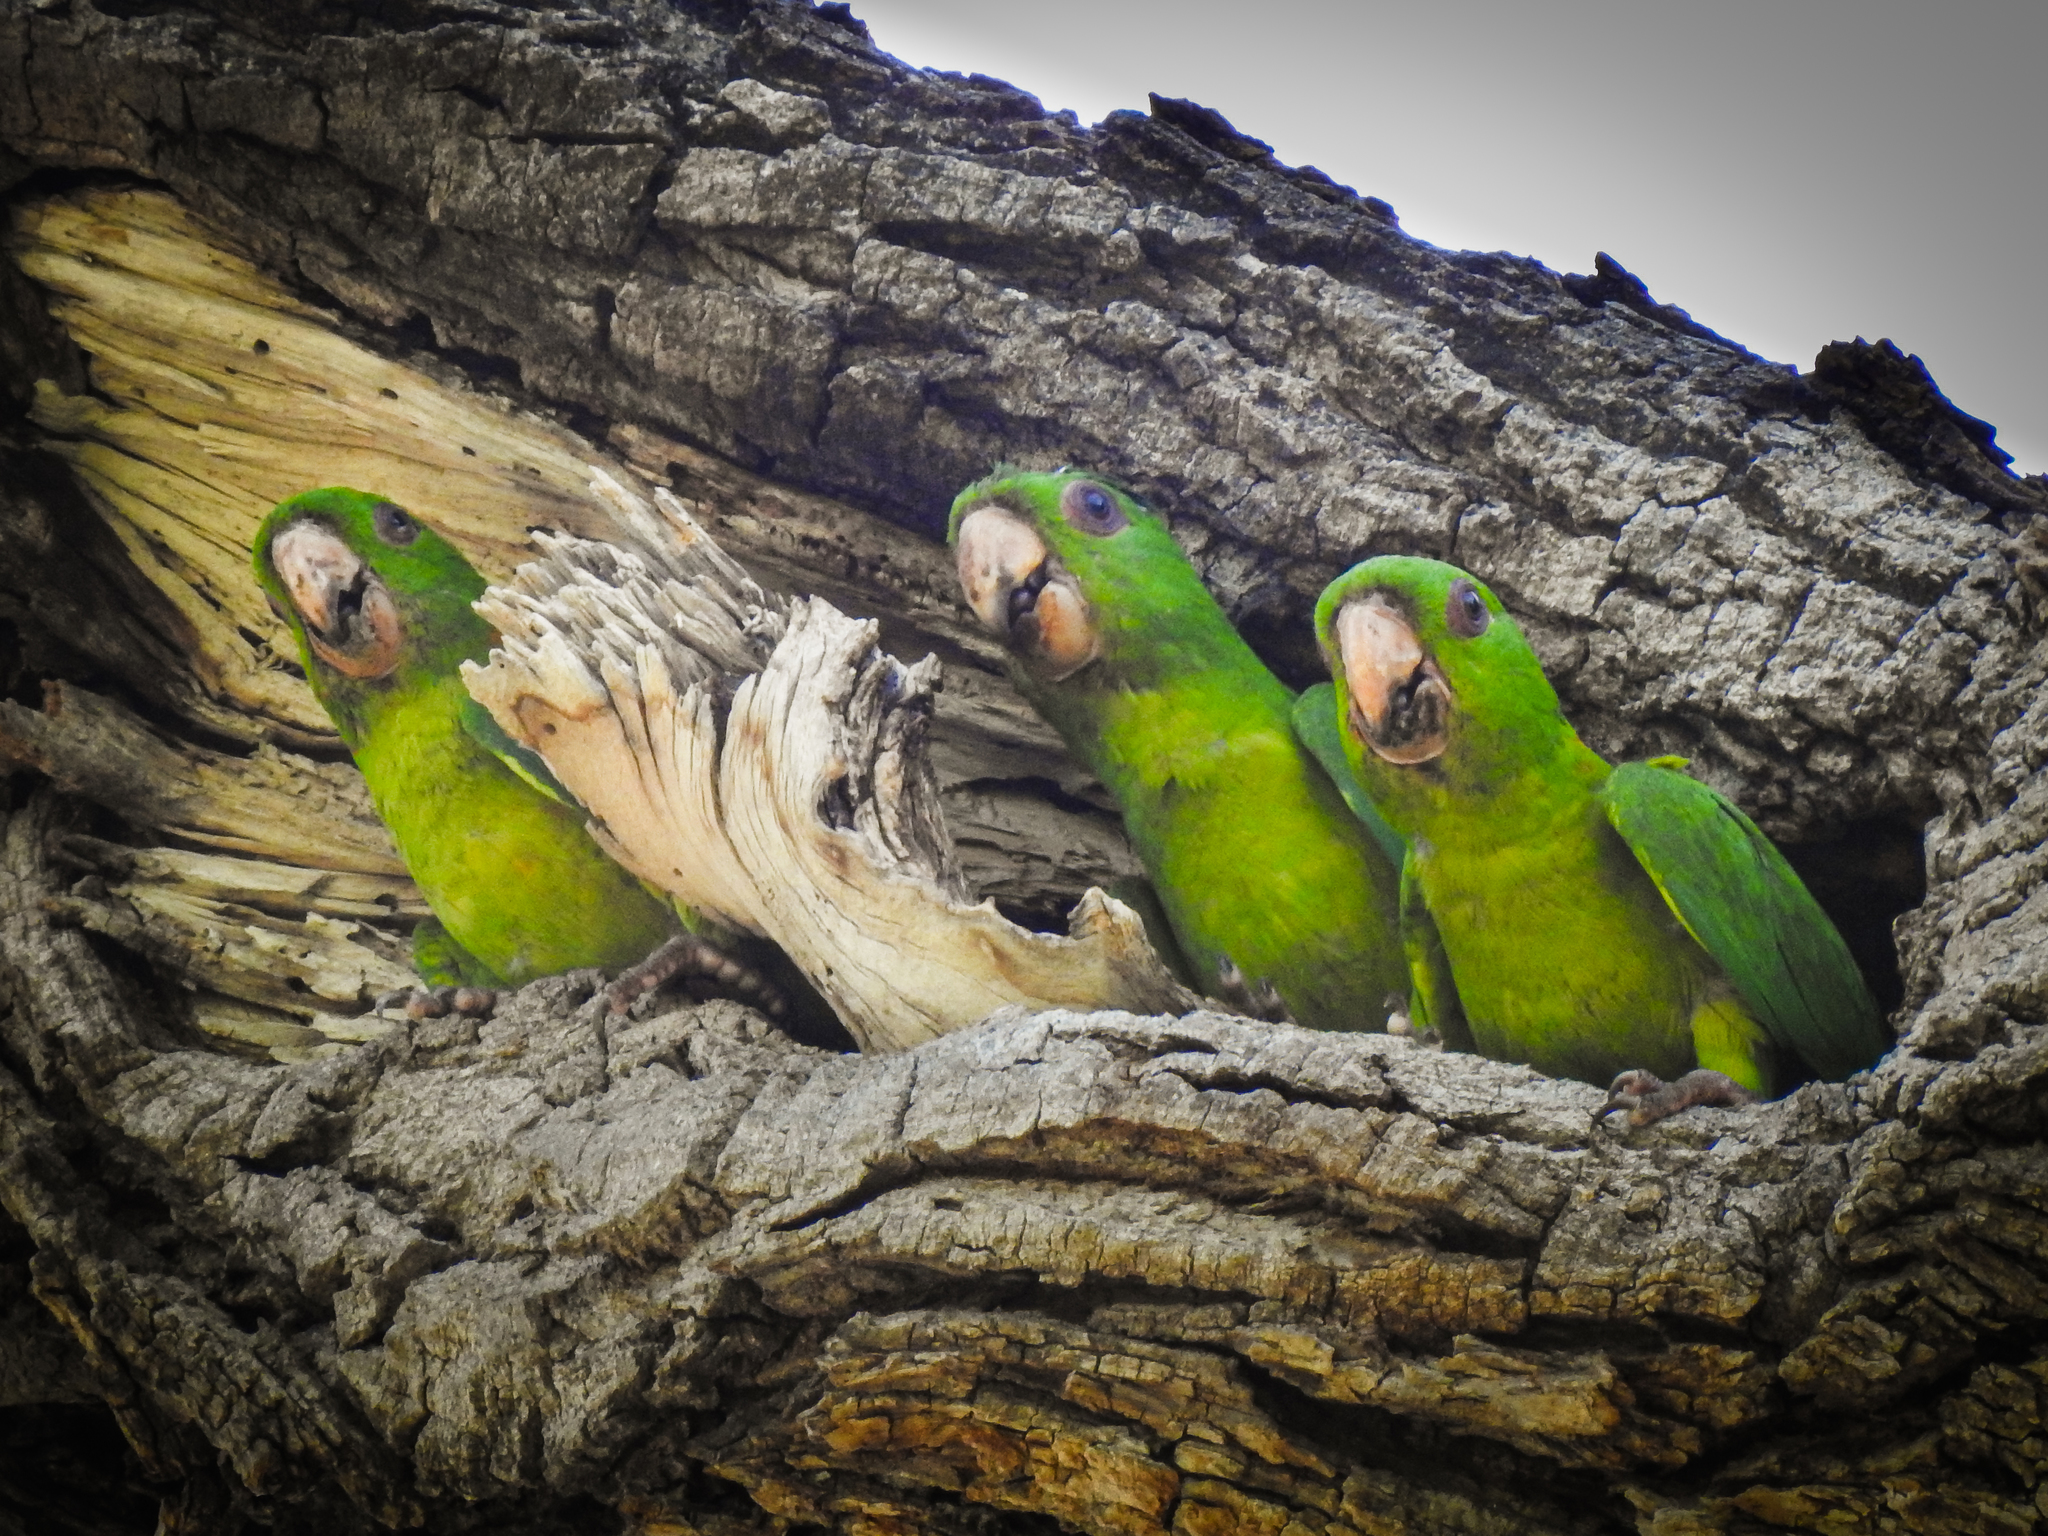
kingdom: Animalia
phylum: Chordata
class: Aves
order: Psittaciformes
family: Psittacidae
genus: Aratinga
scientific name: Aratinga holochlora
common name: Green parakeet
